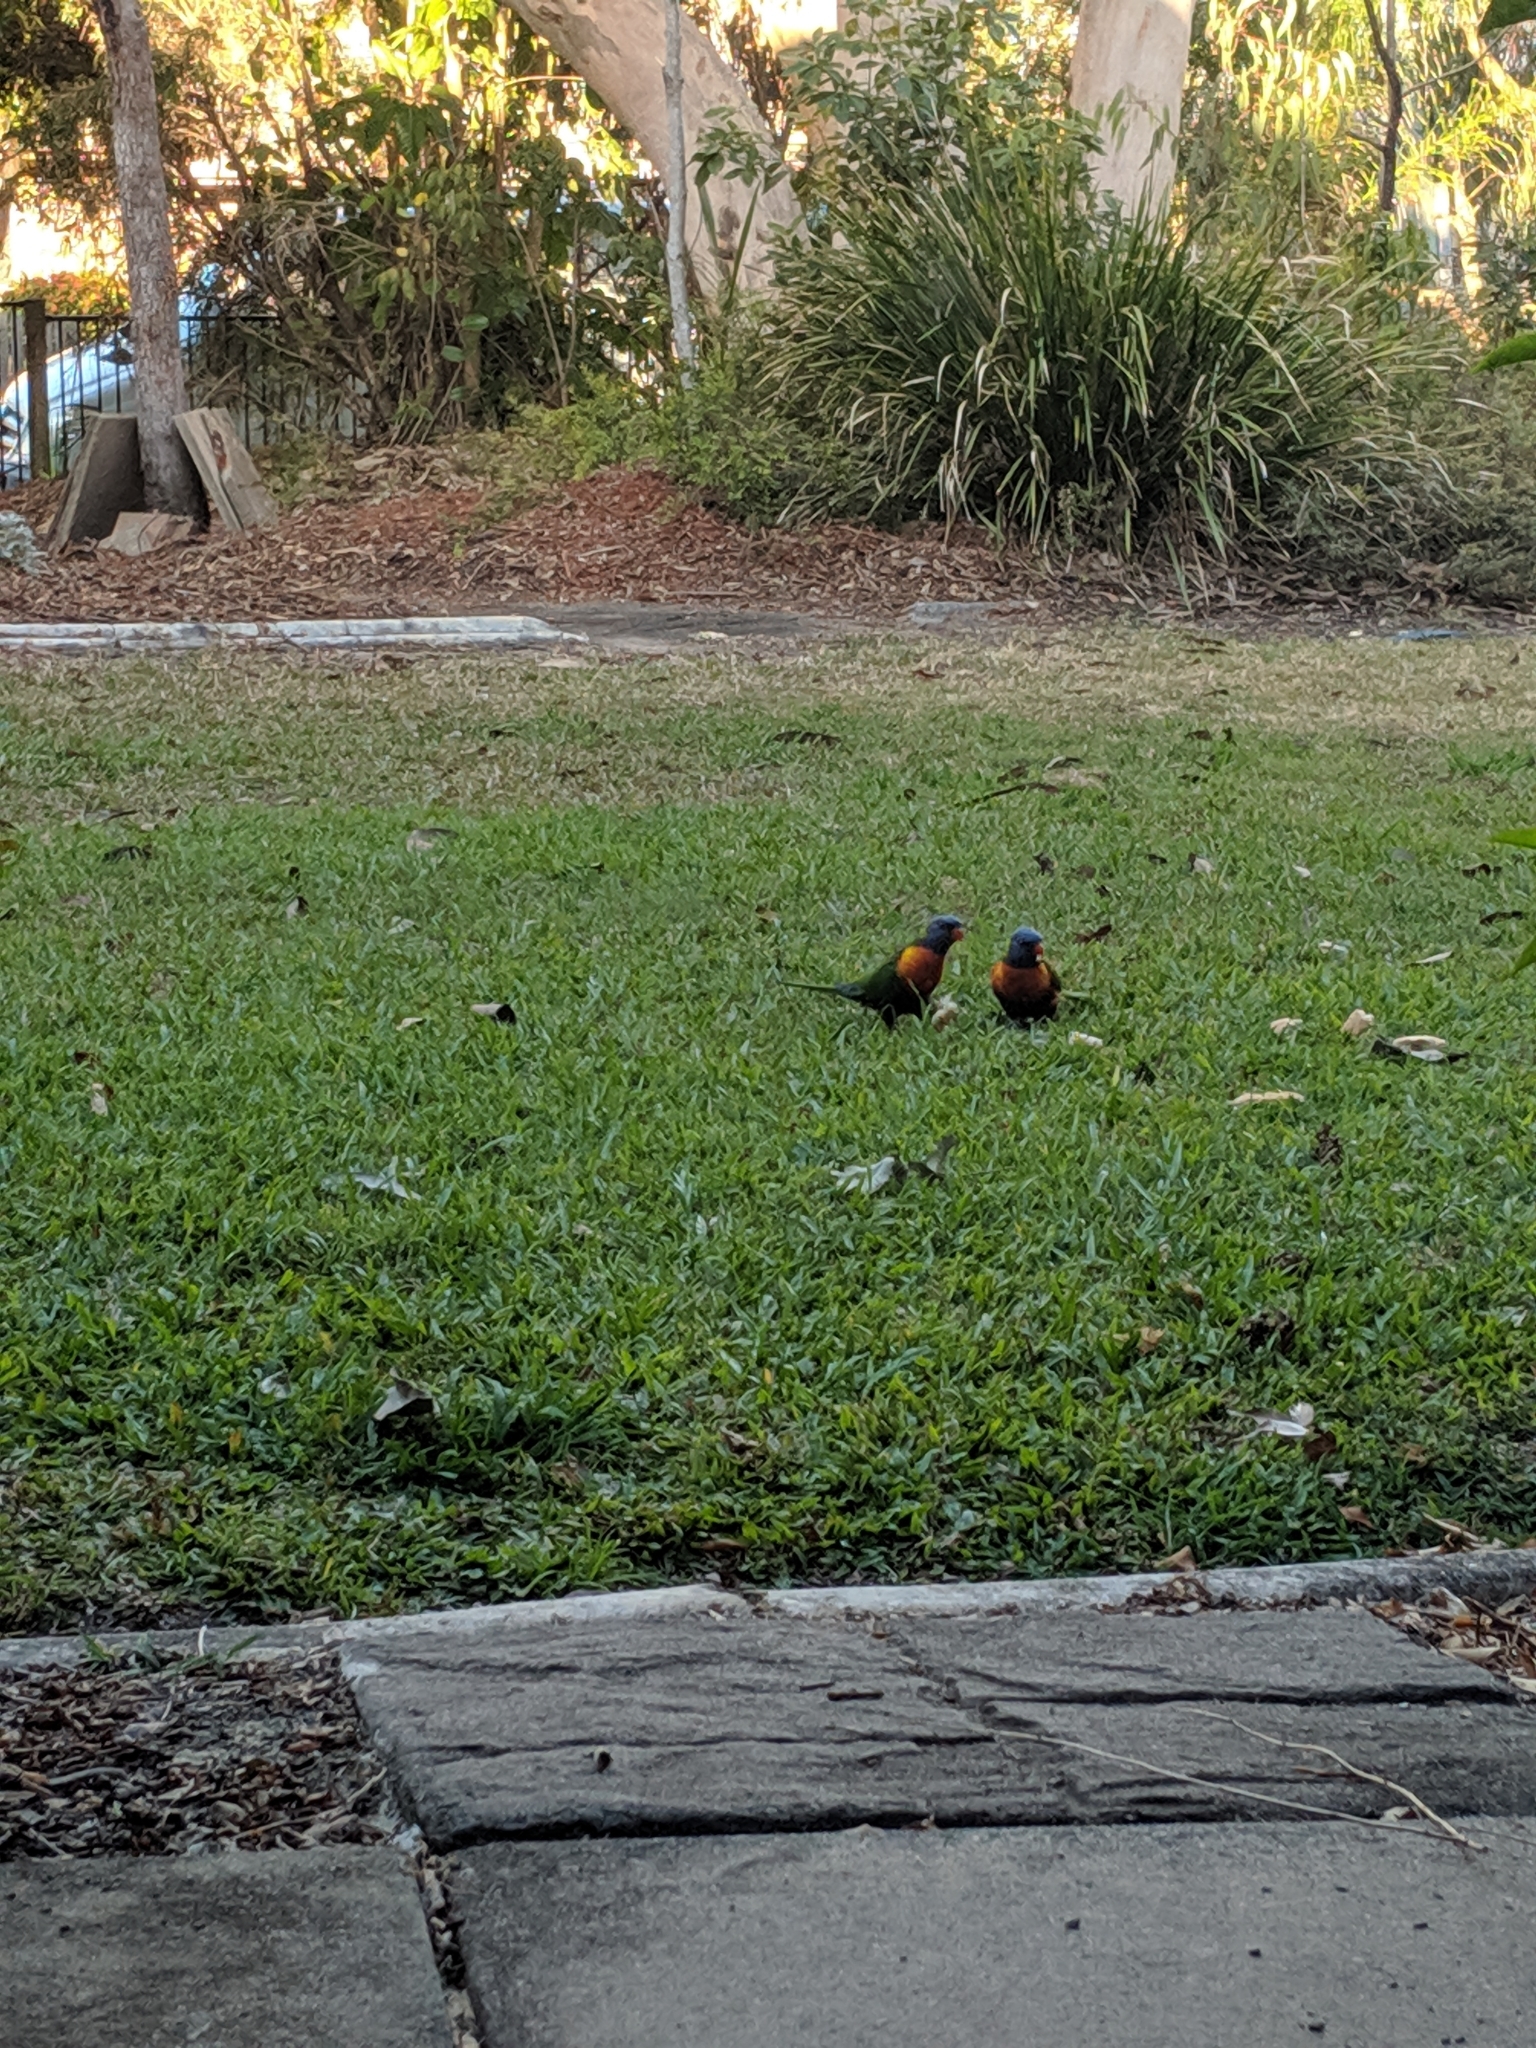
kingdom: Animalia
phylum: Chordata
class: Aves
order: Psittaciformes
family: Psittacidae
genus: Trichoglossus
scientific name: Trichoglossus haematodus
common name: Coconut lorikeet
